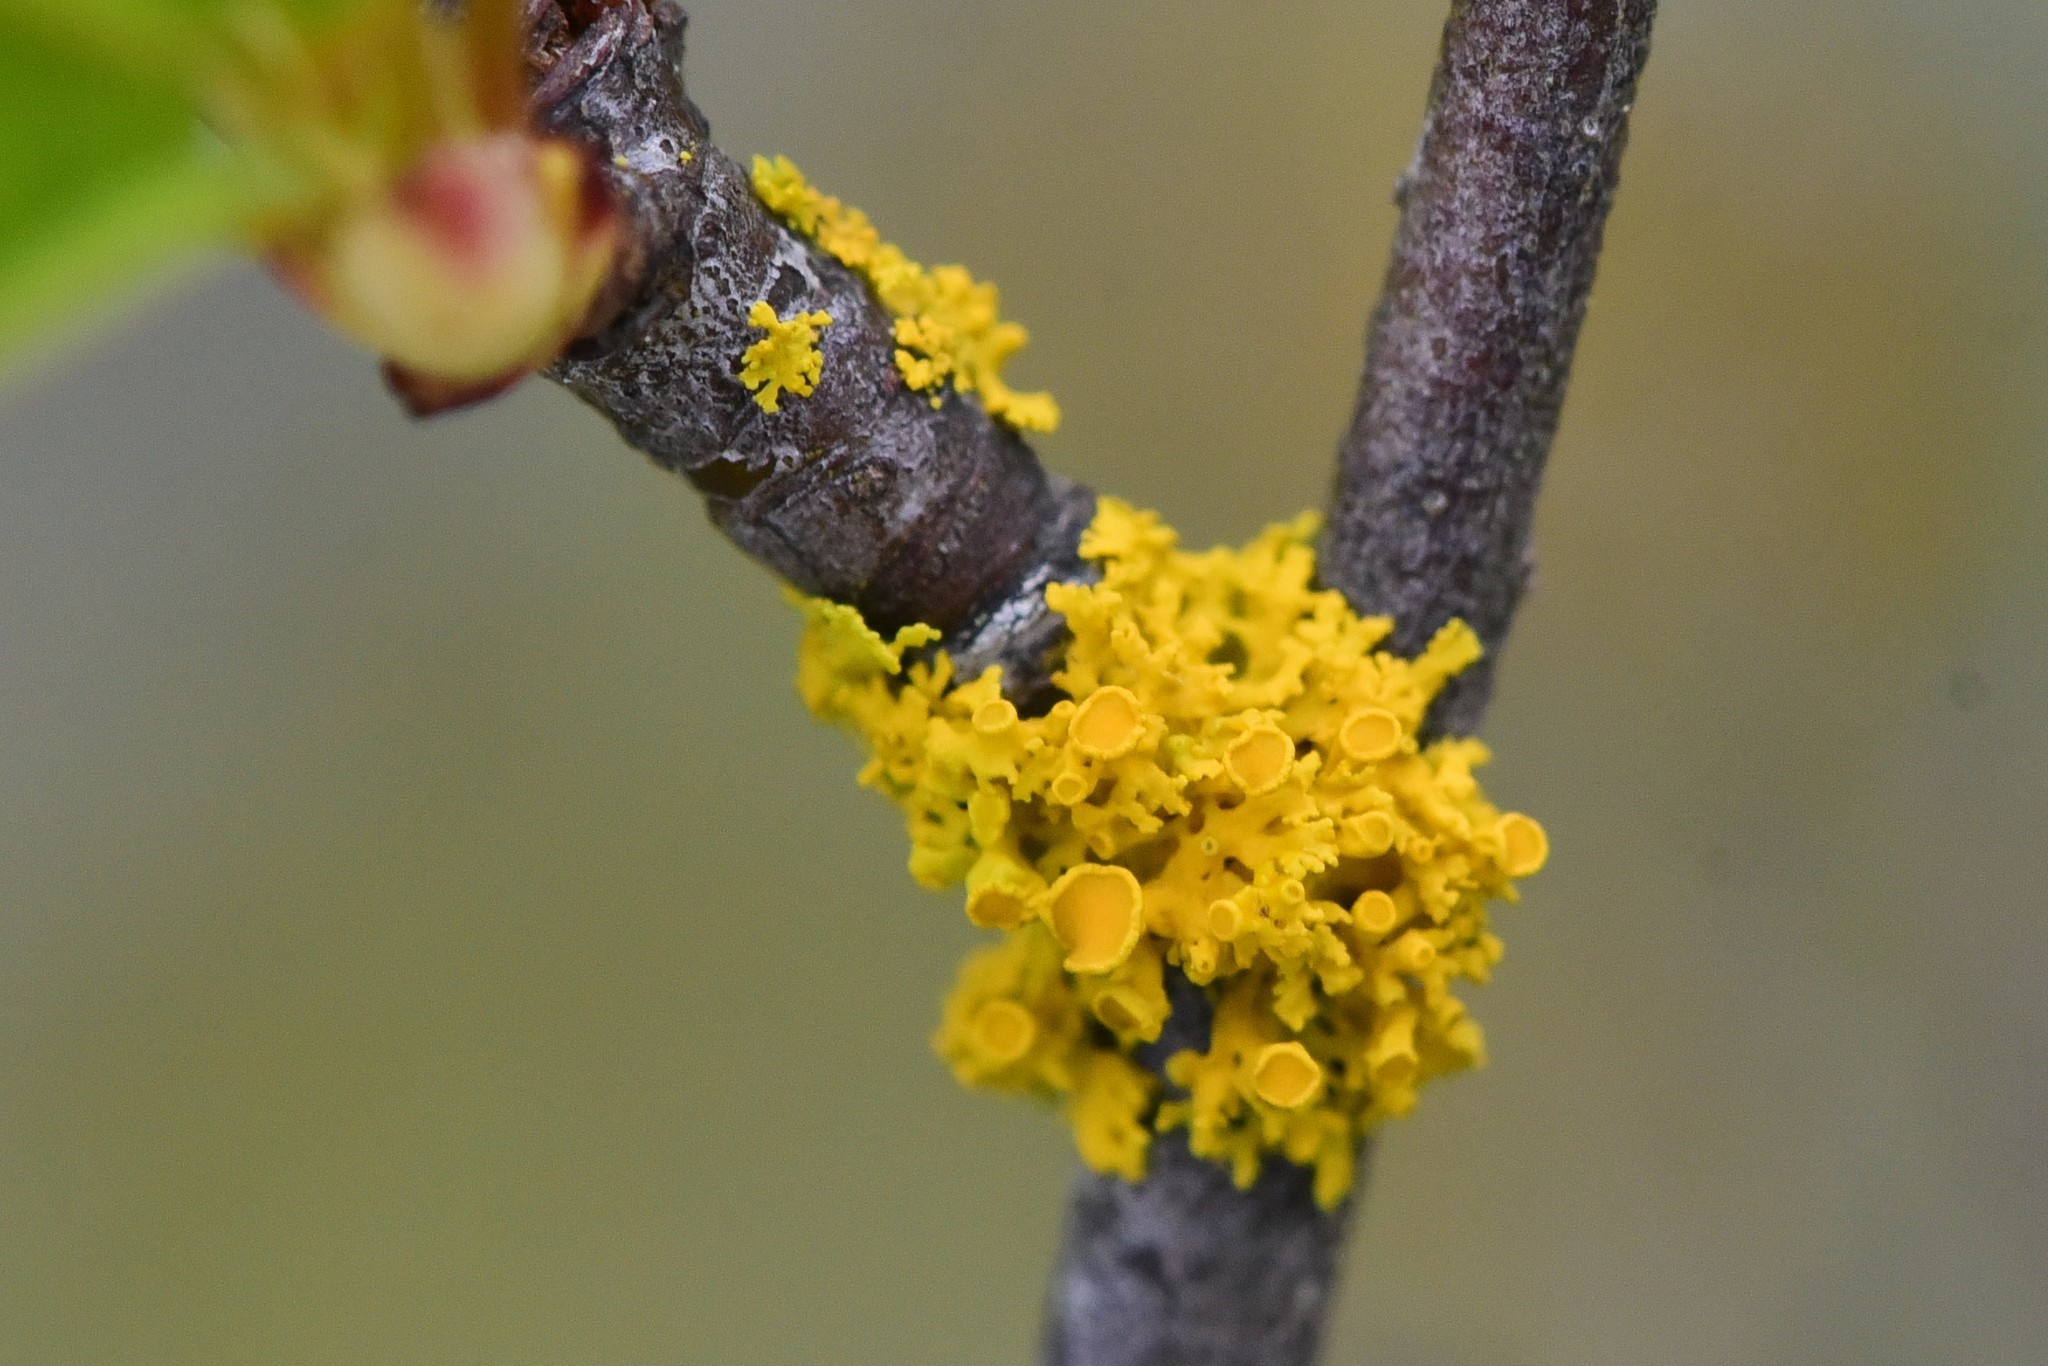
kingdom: Fungi
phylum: Ascomycota
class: Lecanoromycetes
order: Teloschistales
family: Teloschistaceae
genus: Polycauliona
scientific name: Polycauliona polycarpa
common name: Pin-cushion sunburst lichen
